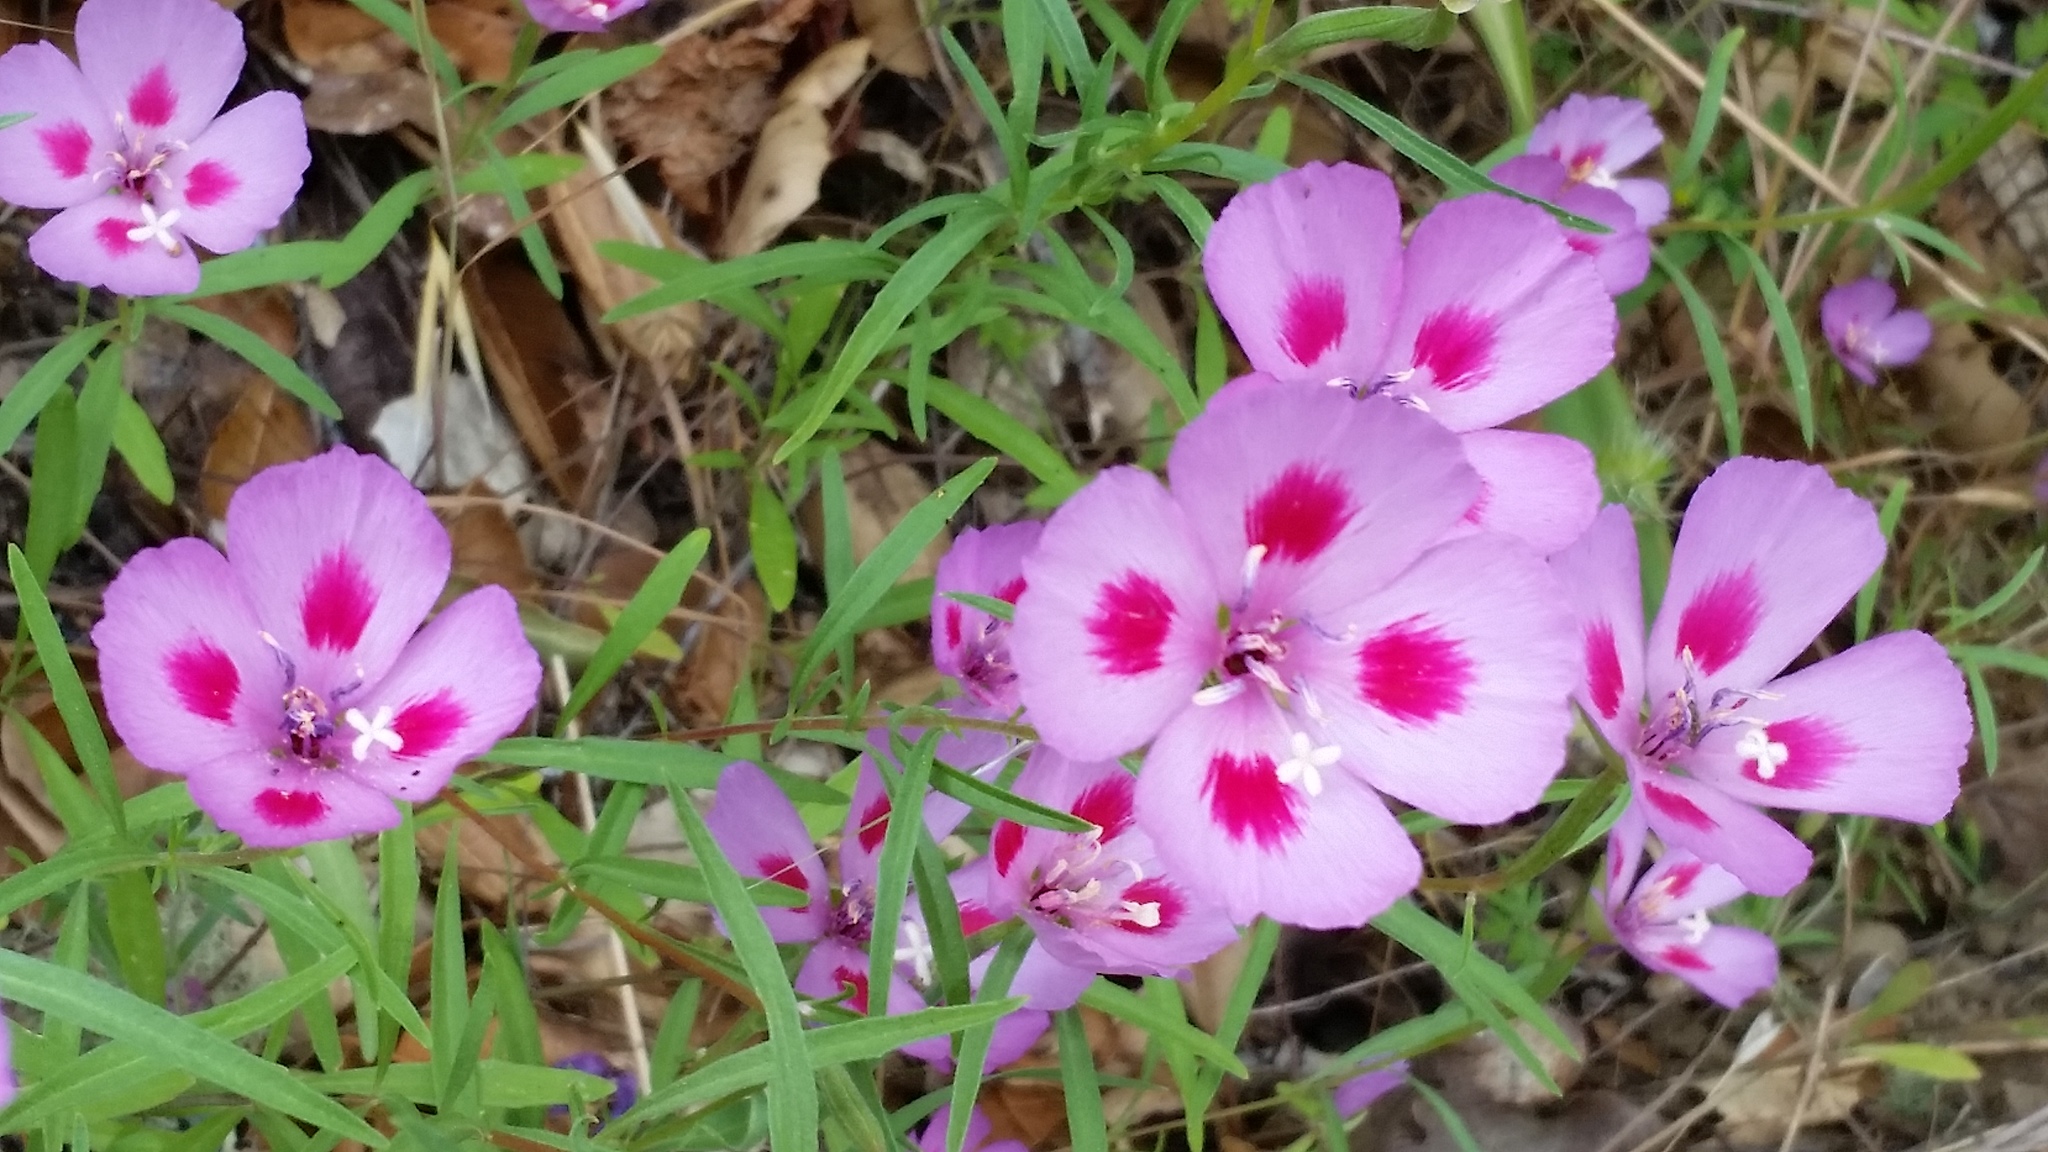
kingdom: Plantae
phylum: Tracheophyta
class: Magnoliopsida
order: Myrtales
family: Onagraceae
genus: Clarkia
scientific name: Clarkia gracilis
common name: Graceful clarkia
